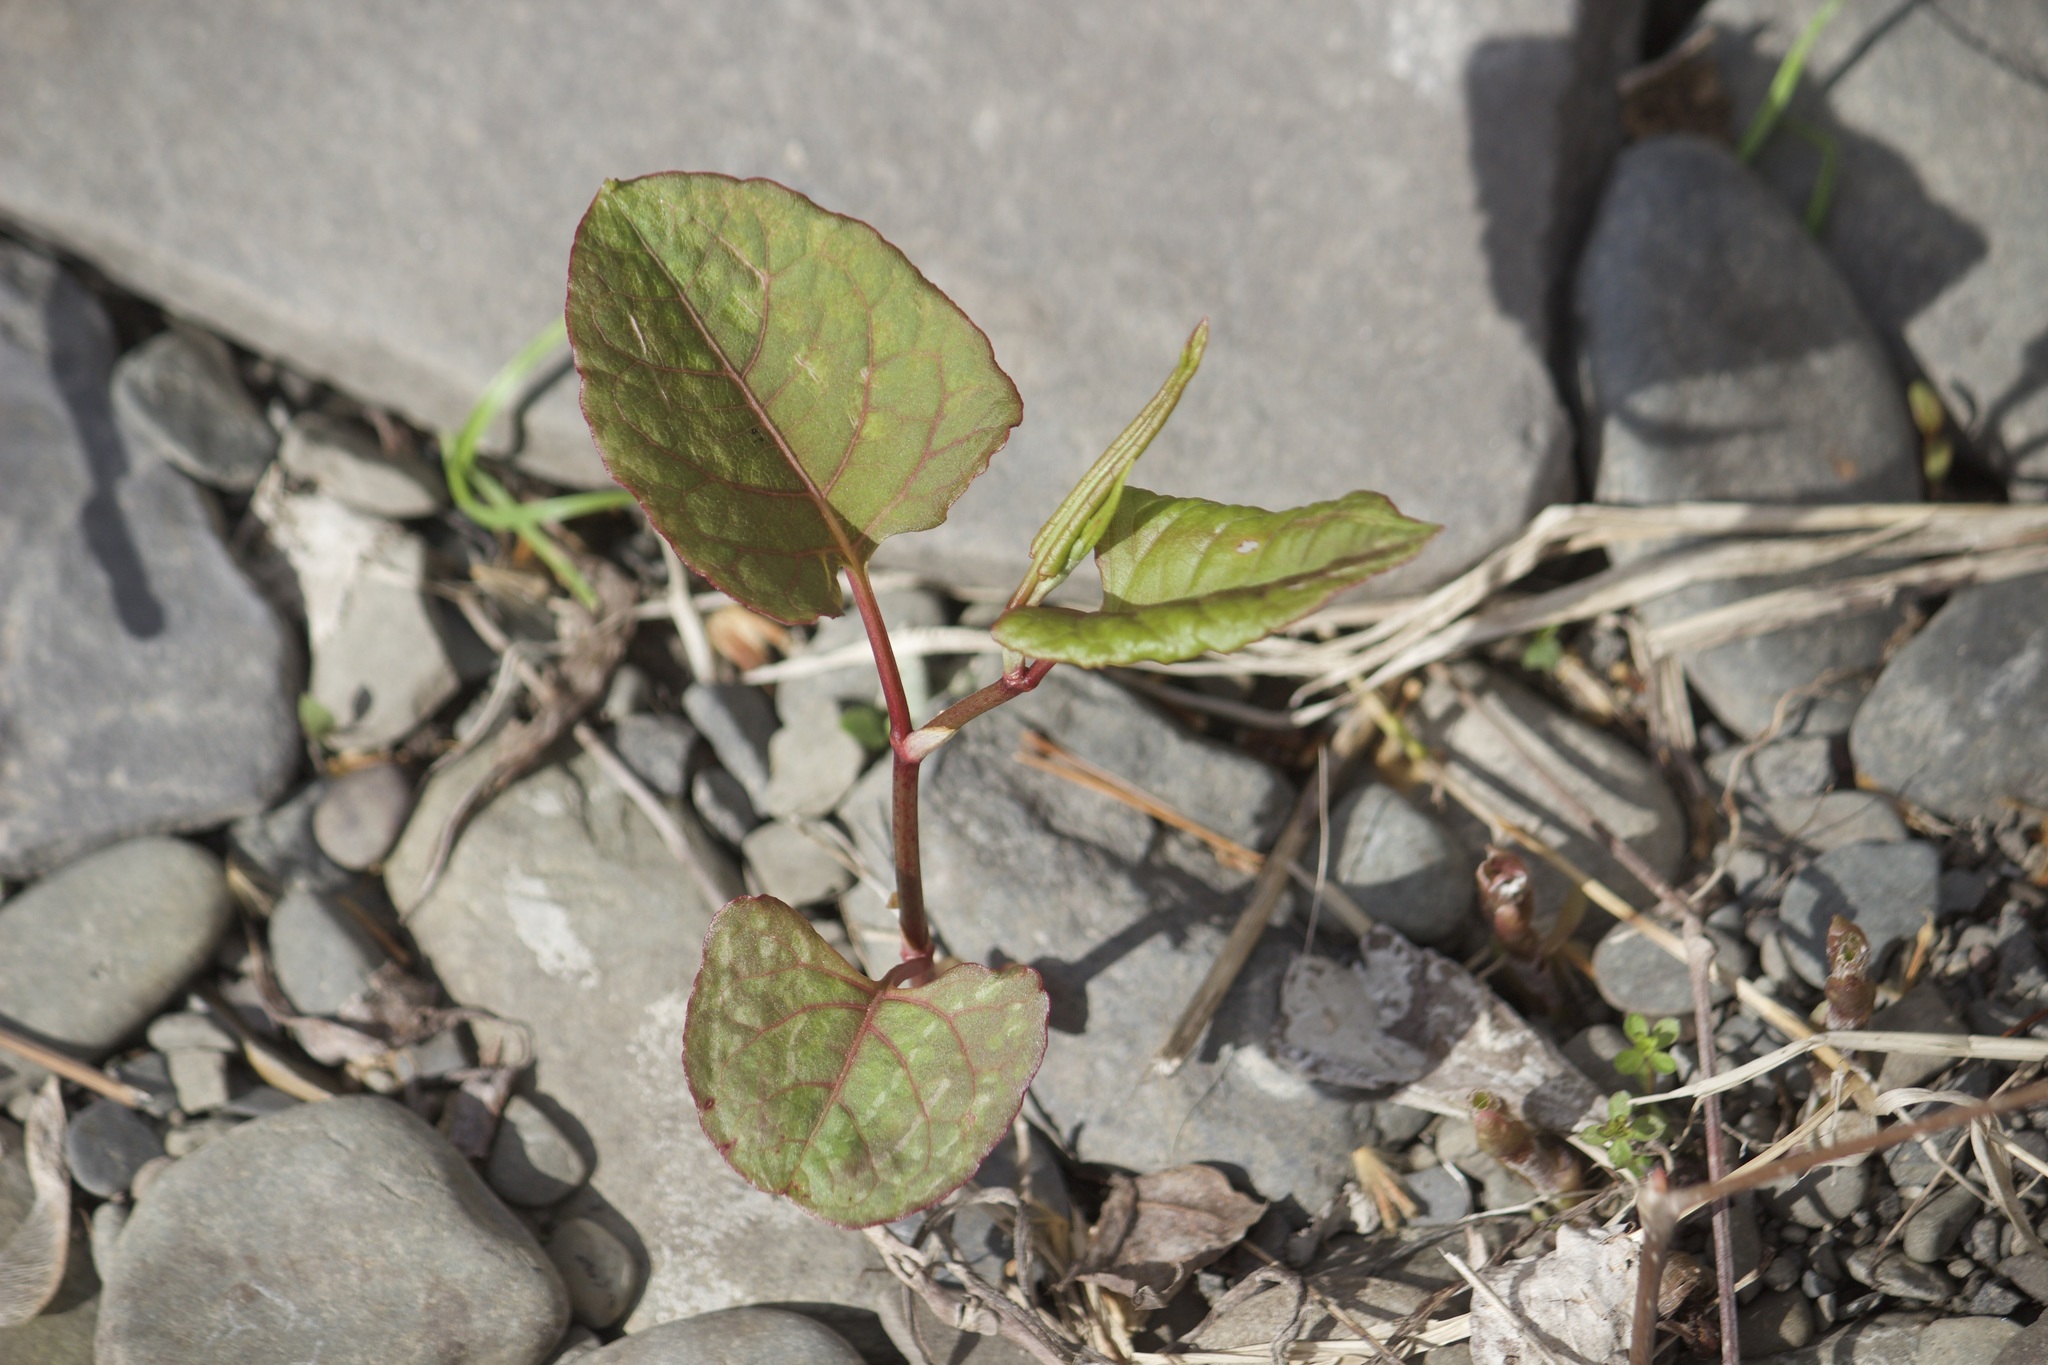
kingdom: Plantae
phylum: Tracheophyta
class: Magnoliopsida
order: Caryophyllales
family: Polygonaceae
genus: Reynoutria
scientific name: Reynoutria japonica
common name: Japanese knotweed
